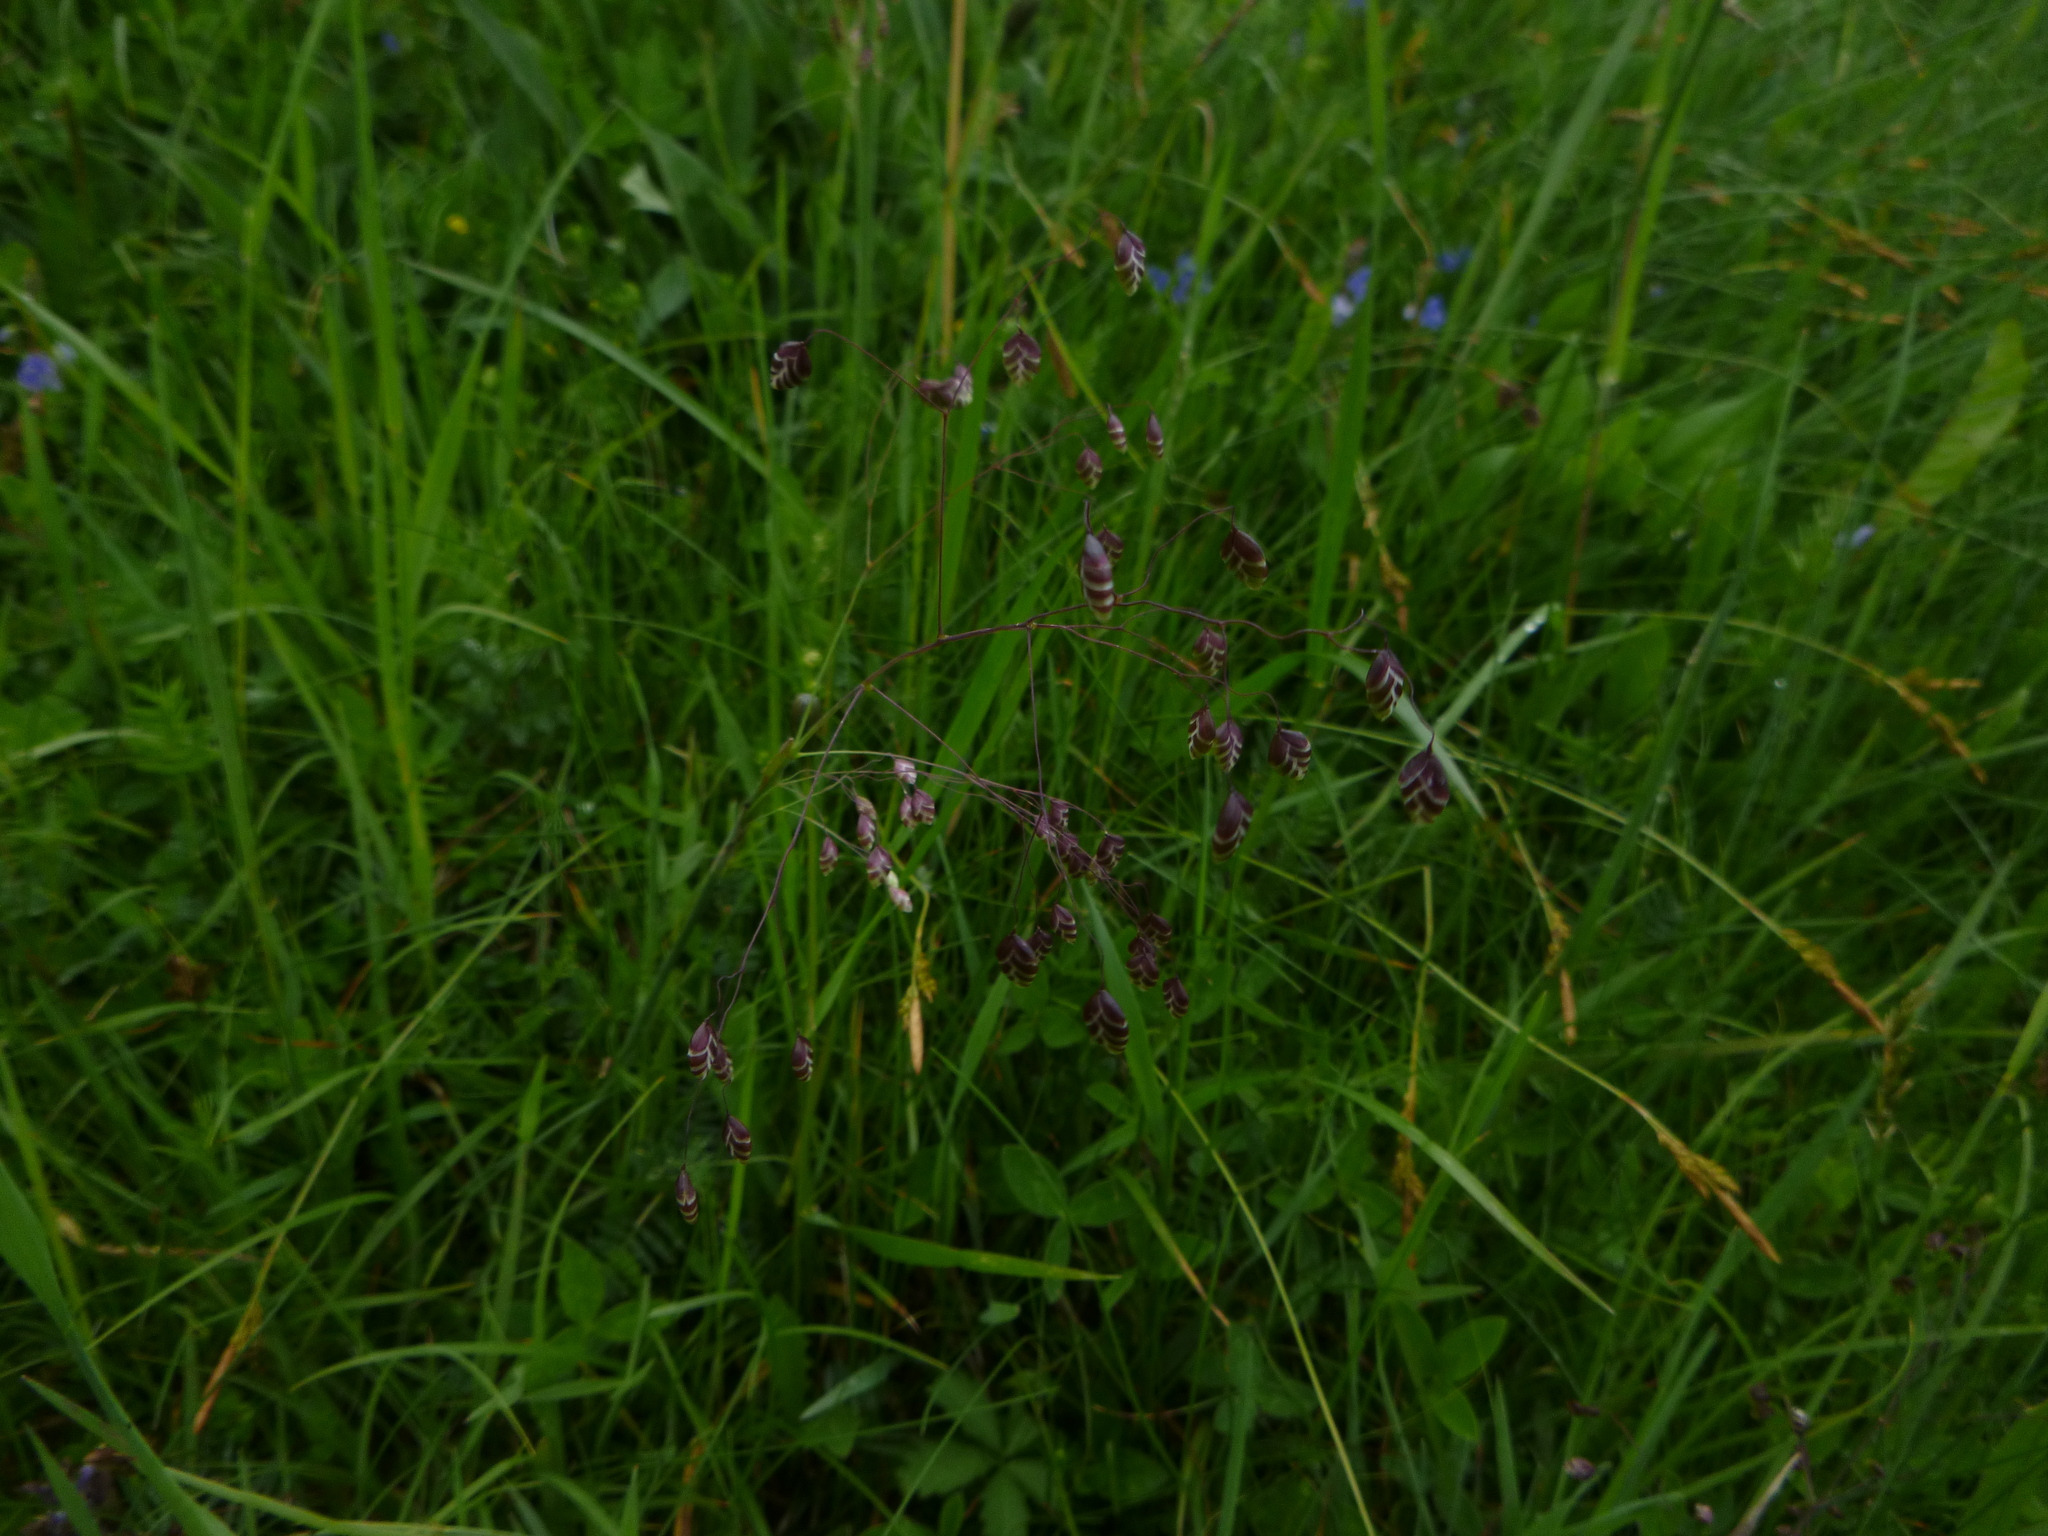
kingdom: Plantae
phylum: Tracheophyta
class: Liliopsida
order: Poales
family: Poaceae
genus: Briza
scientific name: Briza media
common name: Quaking grass
